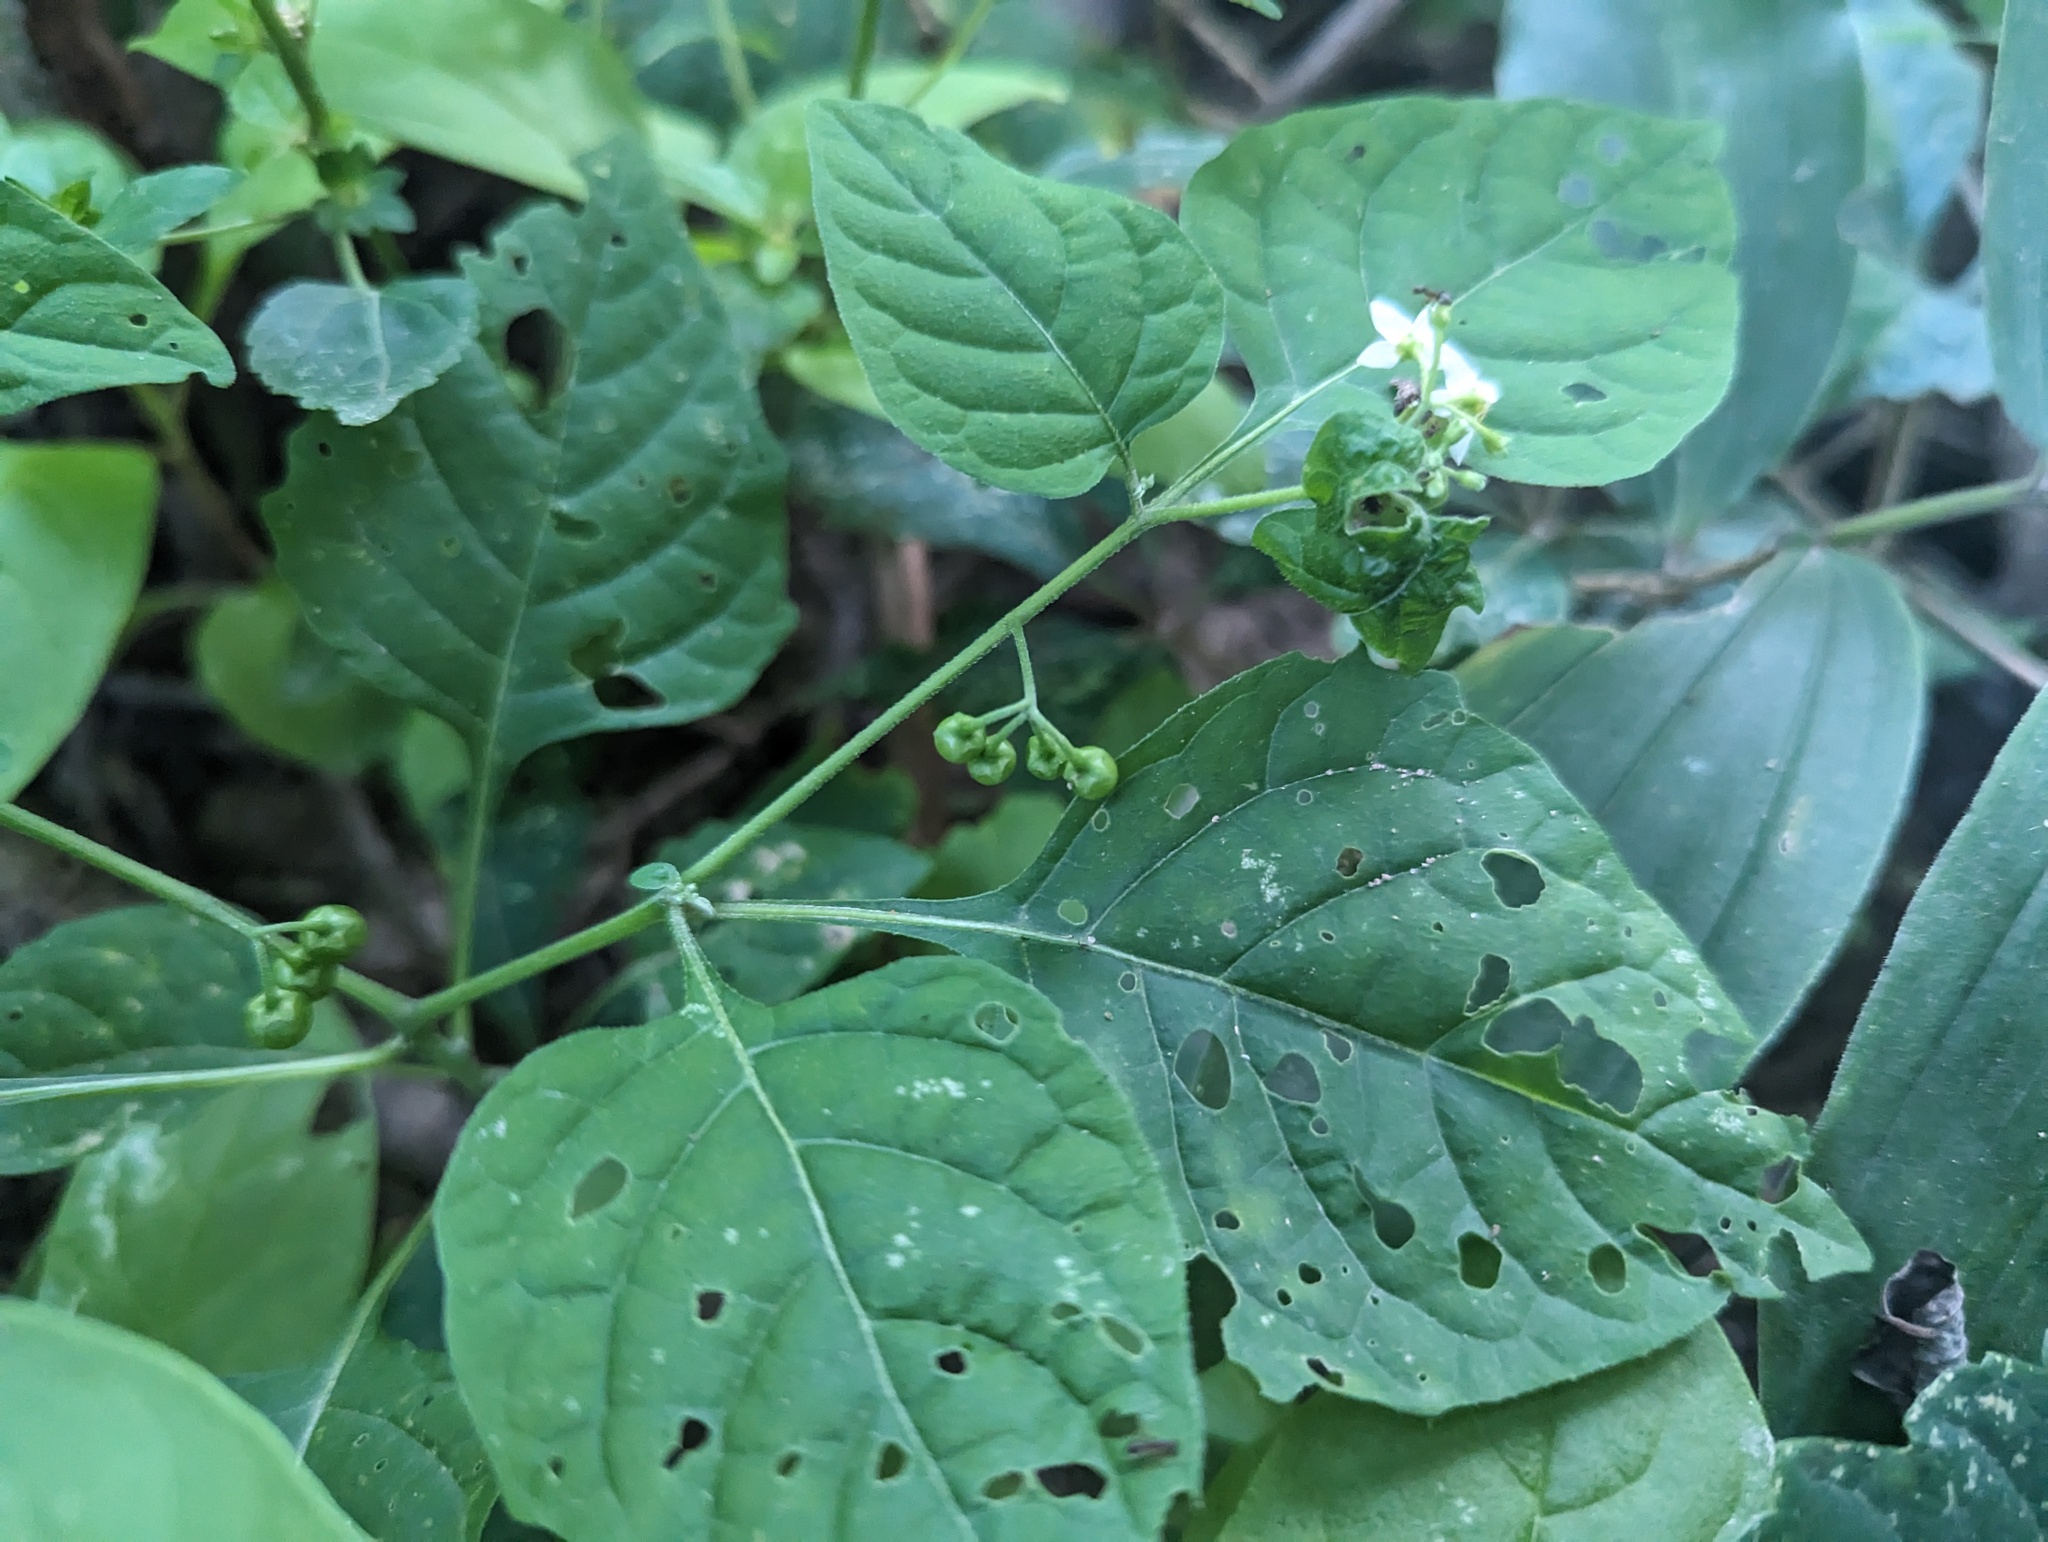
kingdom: Plantae
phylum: Tracheophyta
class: Magnoliopsida
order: Solanales
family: Solanaceae
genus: Solanum
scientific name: Solanum emulans
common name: Eastern black nightshade
